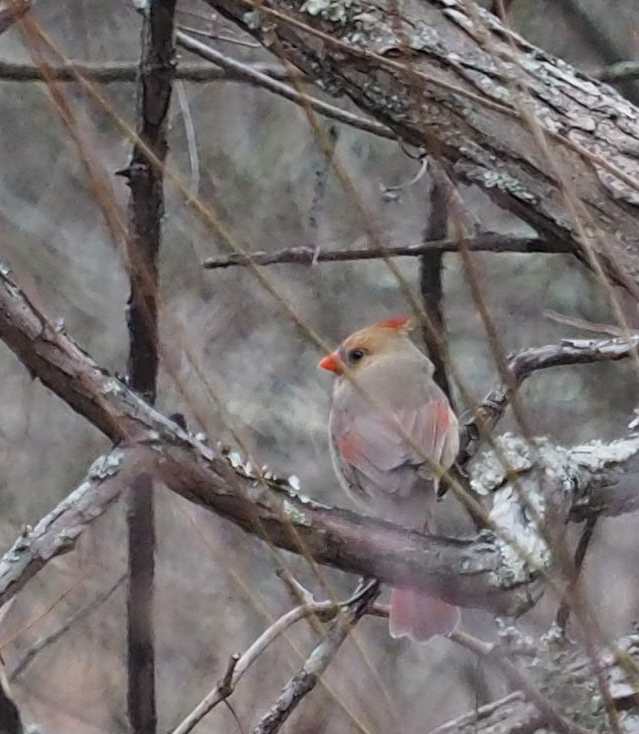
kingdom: Animalia
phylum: Chordata
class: Aves
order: Passeriformes
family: Cardinalidae
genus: Cardinalis
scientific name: Cardinalis cardinalis
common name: Northern cardinal
